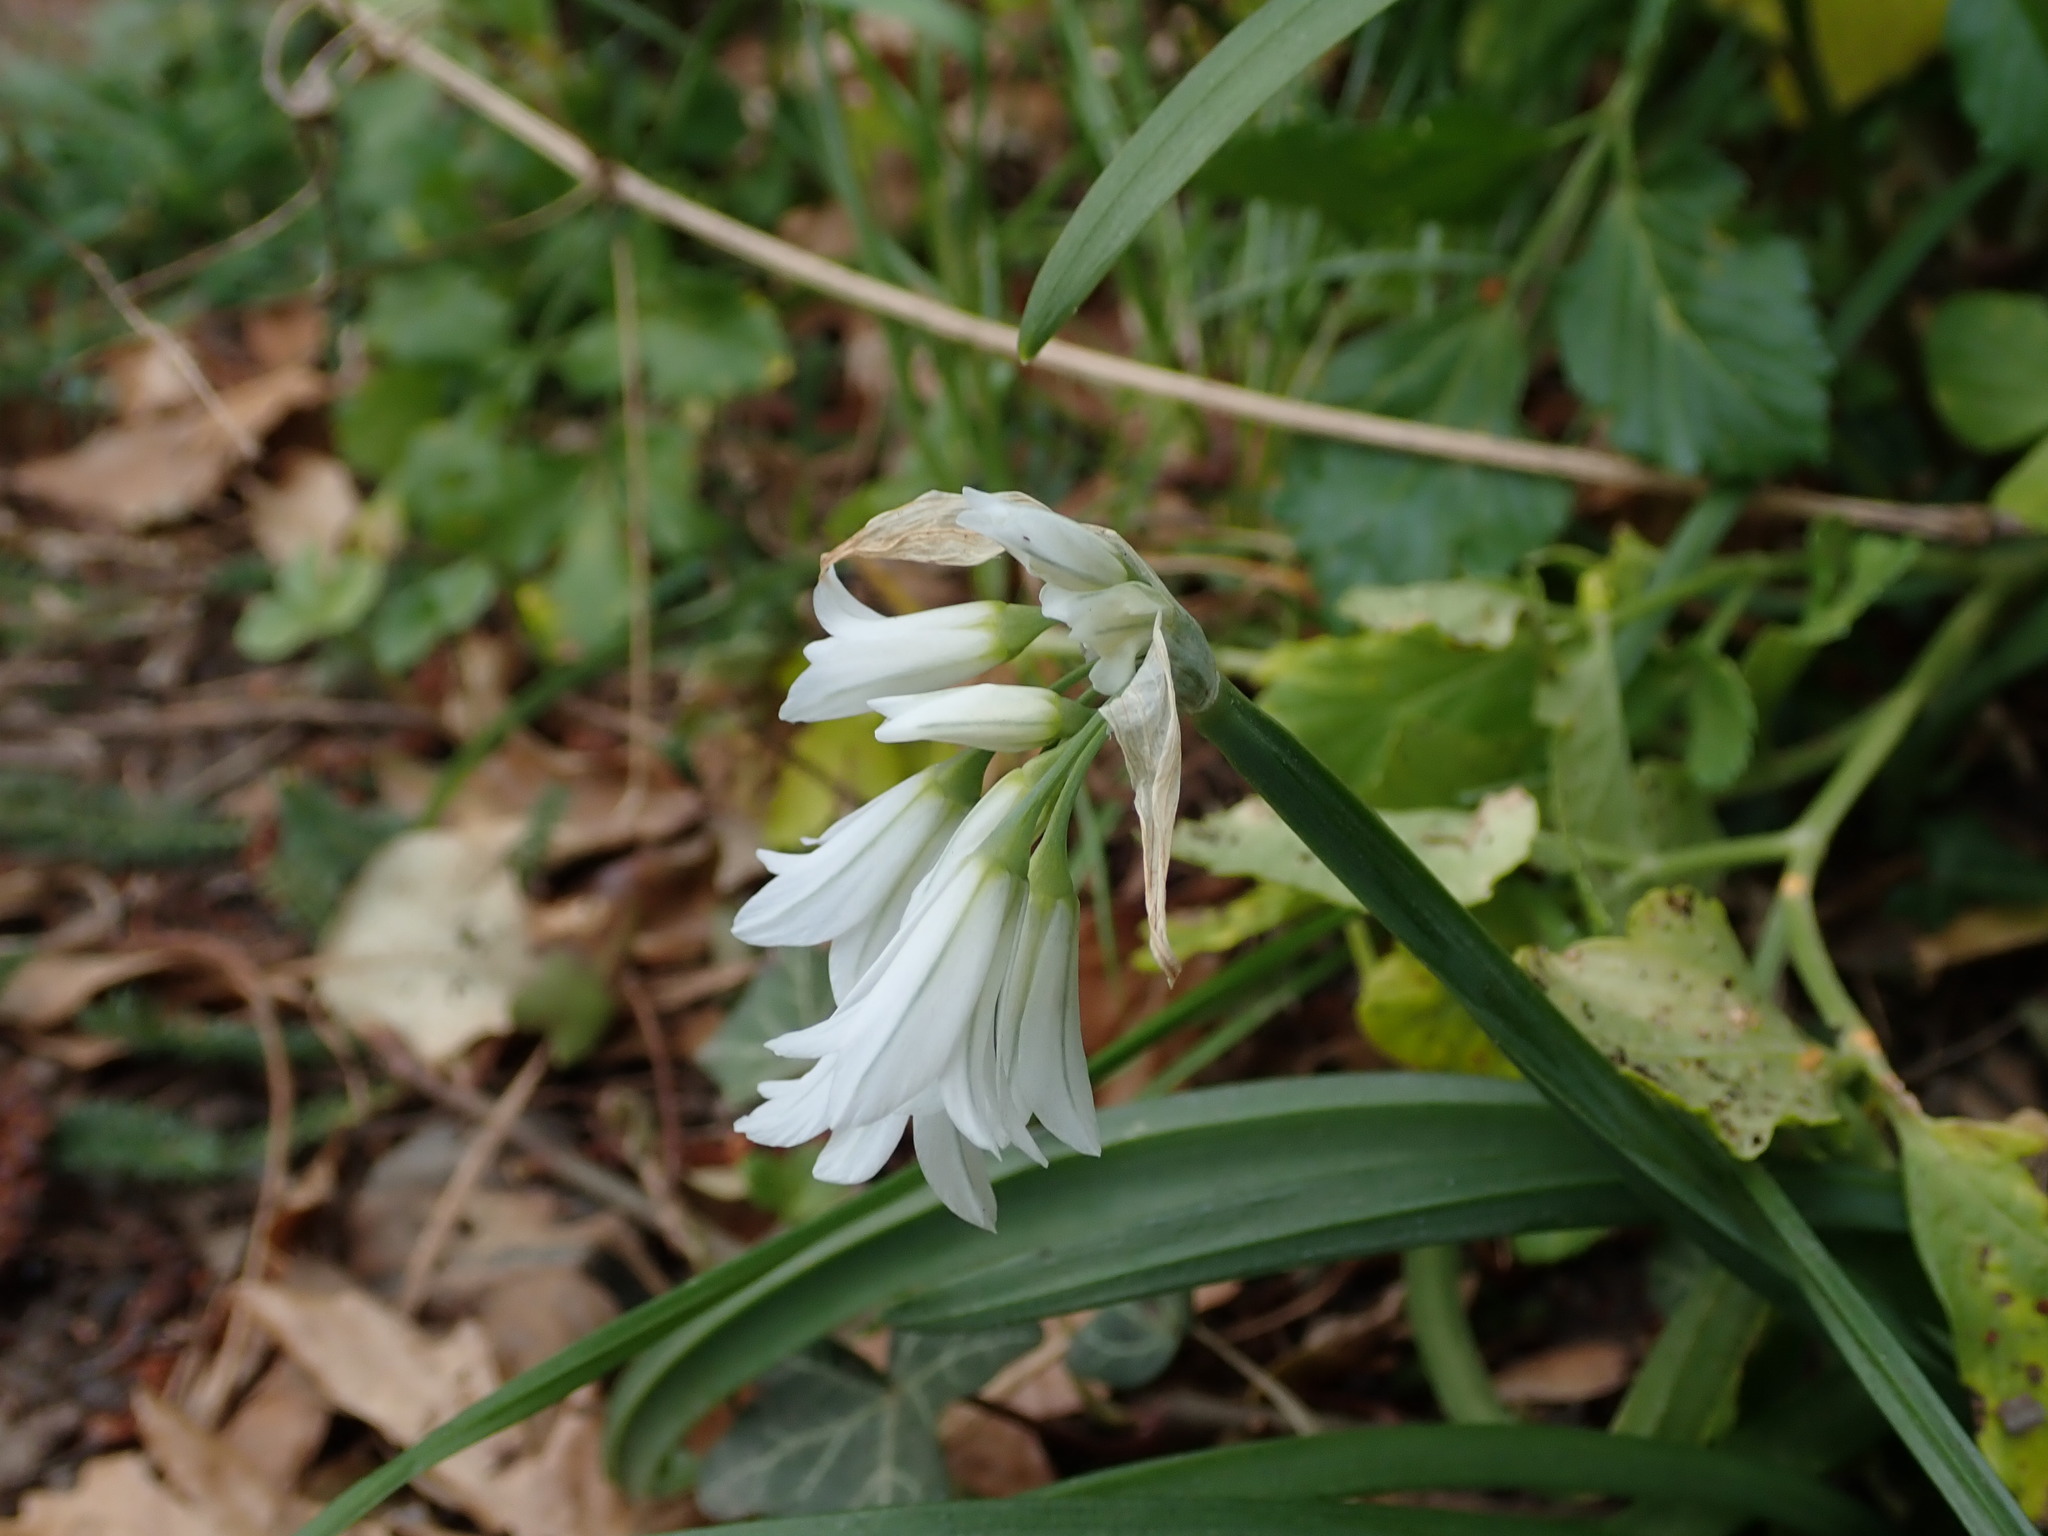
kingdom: Plantae
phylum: Tracheophyta
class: Liliopsida
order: Asparagales
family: Amaryllidaceae
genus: Allium
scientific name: Allium triquetrum
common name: Three-cornered garlic
